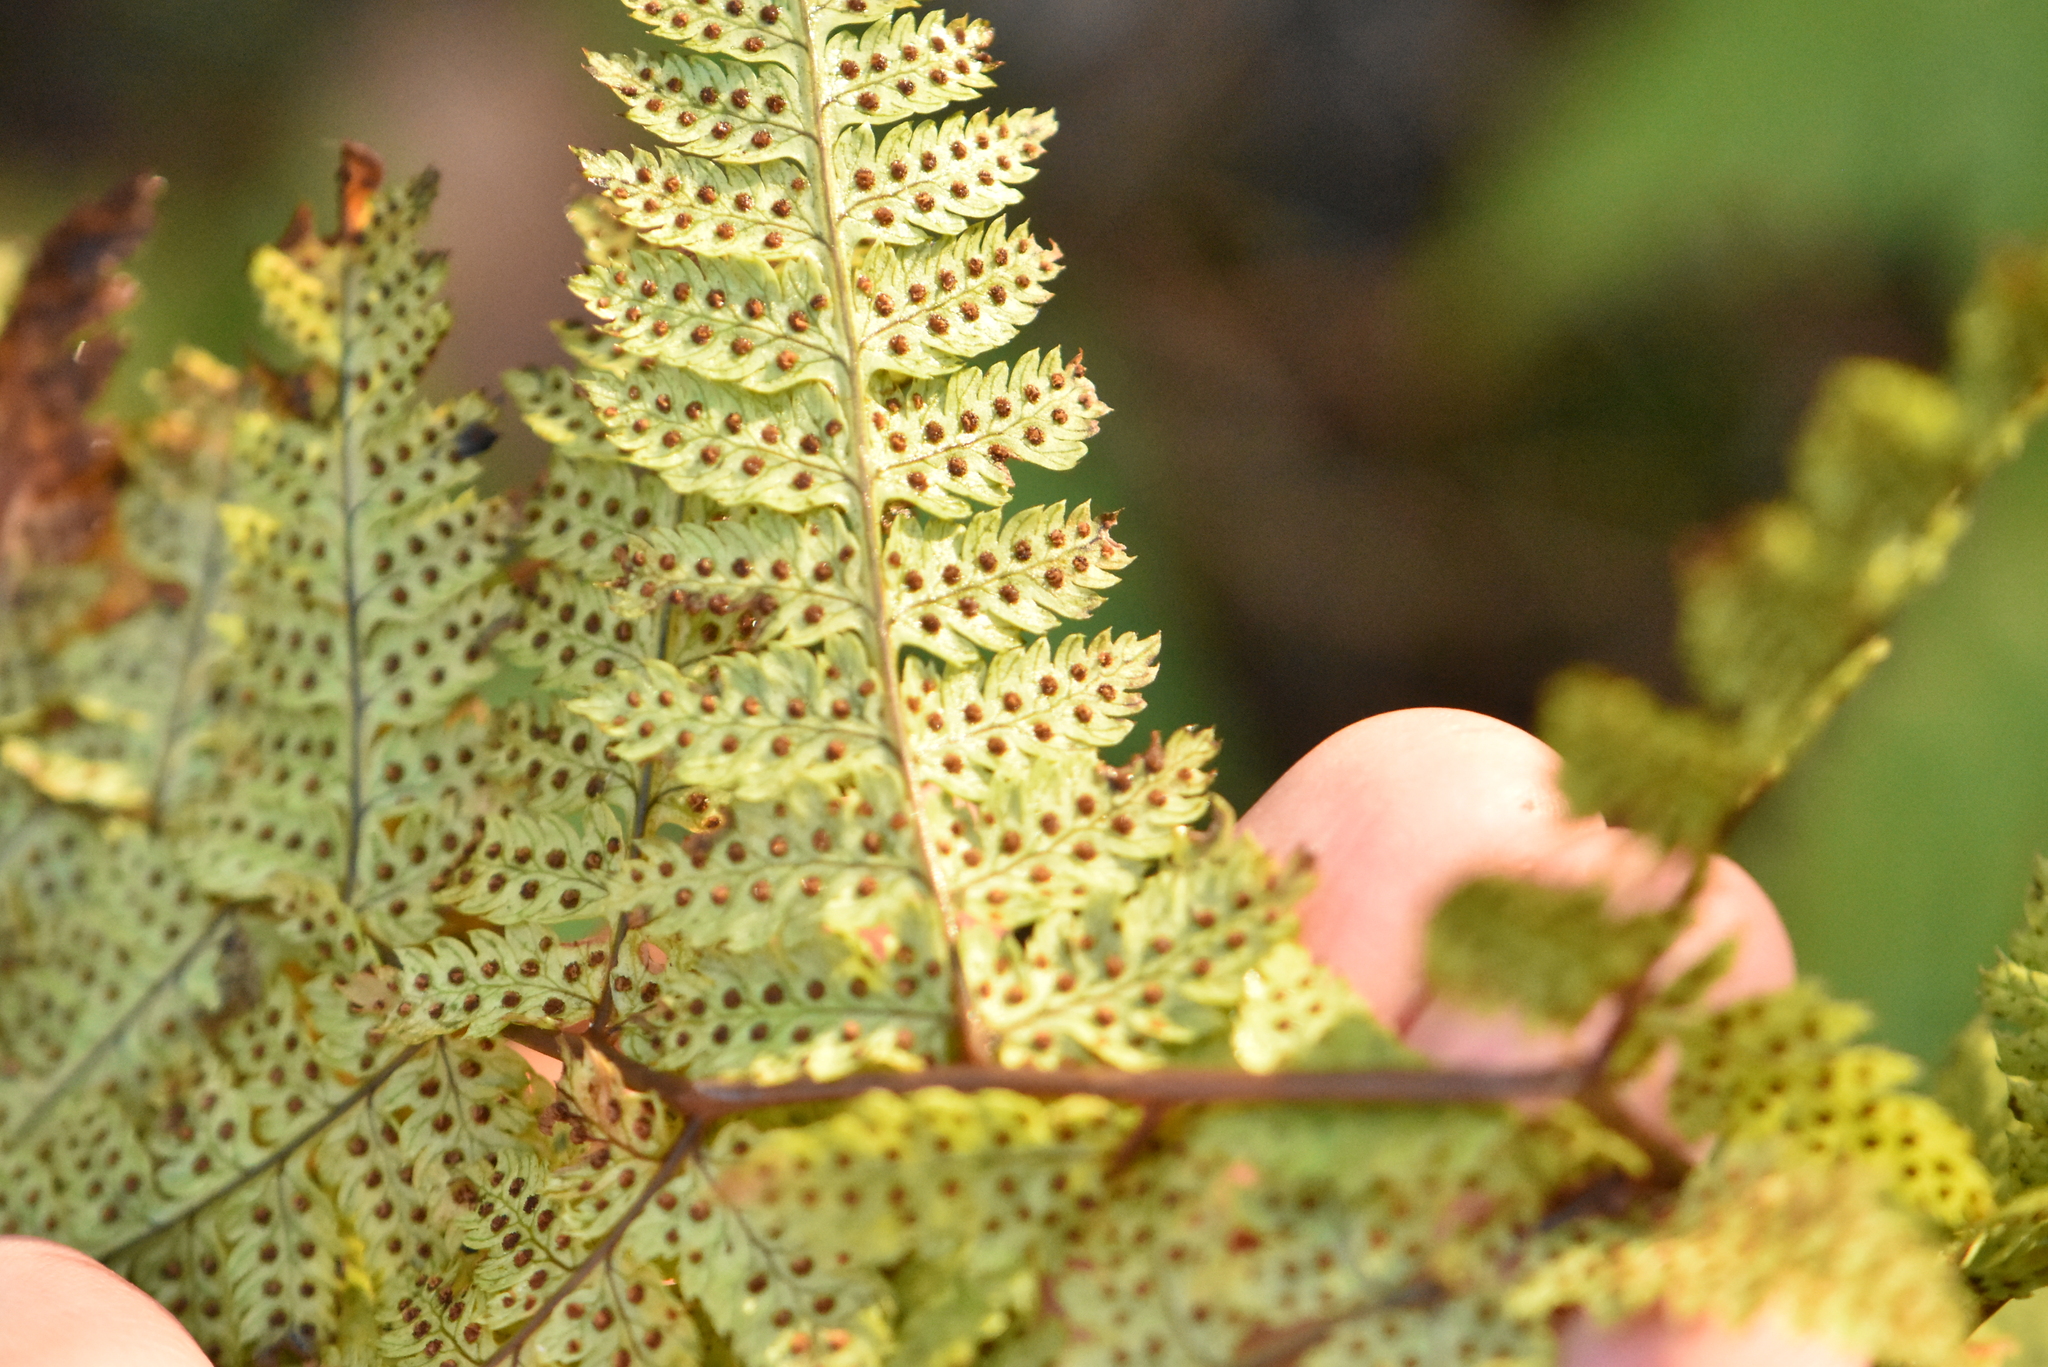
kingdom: Plantae
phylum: Tracheophyta
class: Polypodiopsida
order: Polypodiales
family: Dryopteridaceae
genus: Dryopteris
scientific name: Dryopteris carthusiana
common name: Narrow buckler-fern
